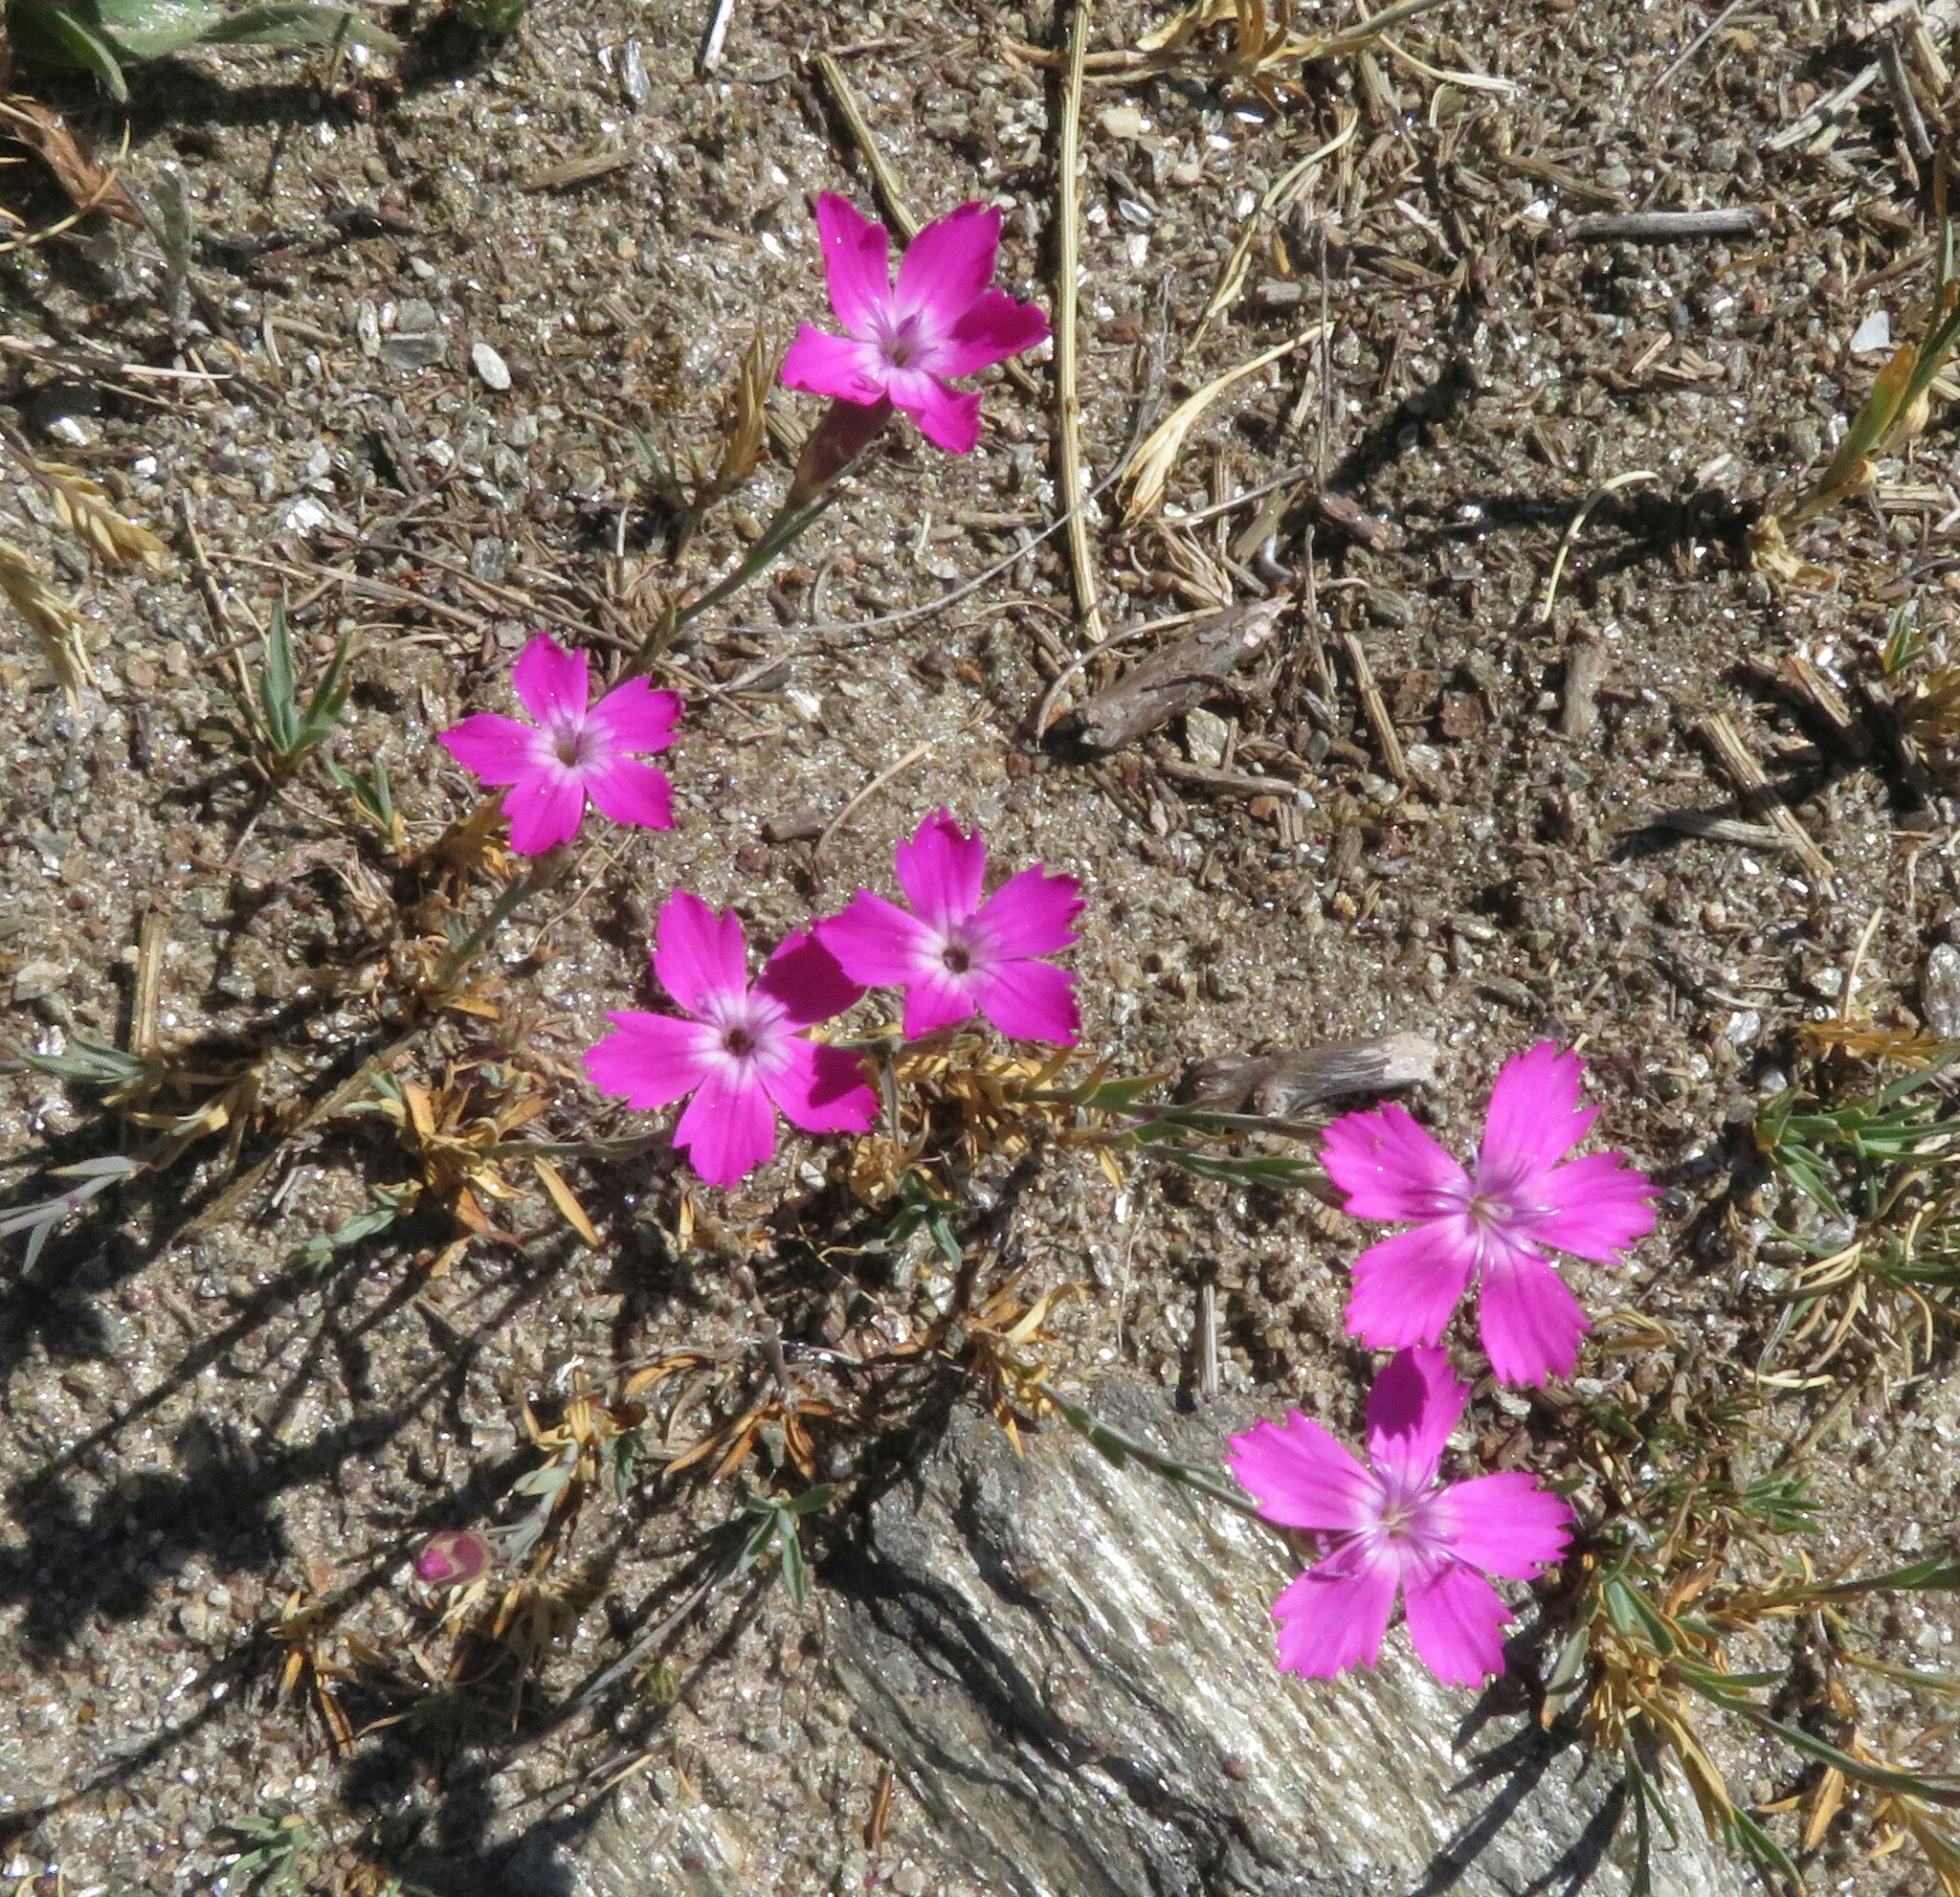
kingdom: Plantae
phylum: Tracheophyta
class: Magnoliopsida
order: Caryophyllales
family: Caryophyllaceae
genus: Dianthus
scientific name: Dianthus legionensis
